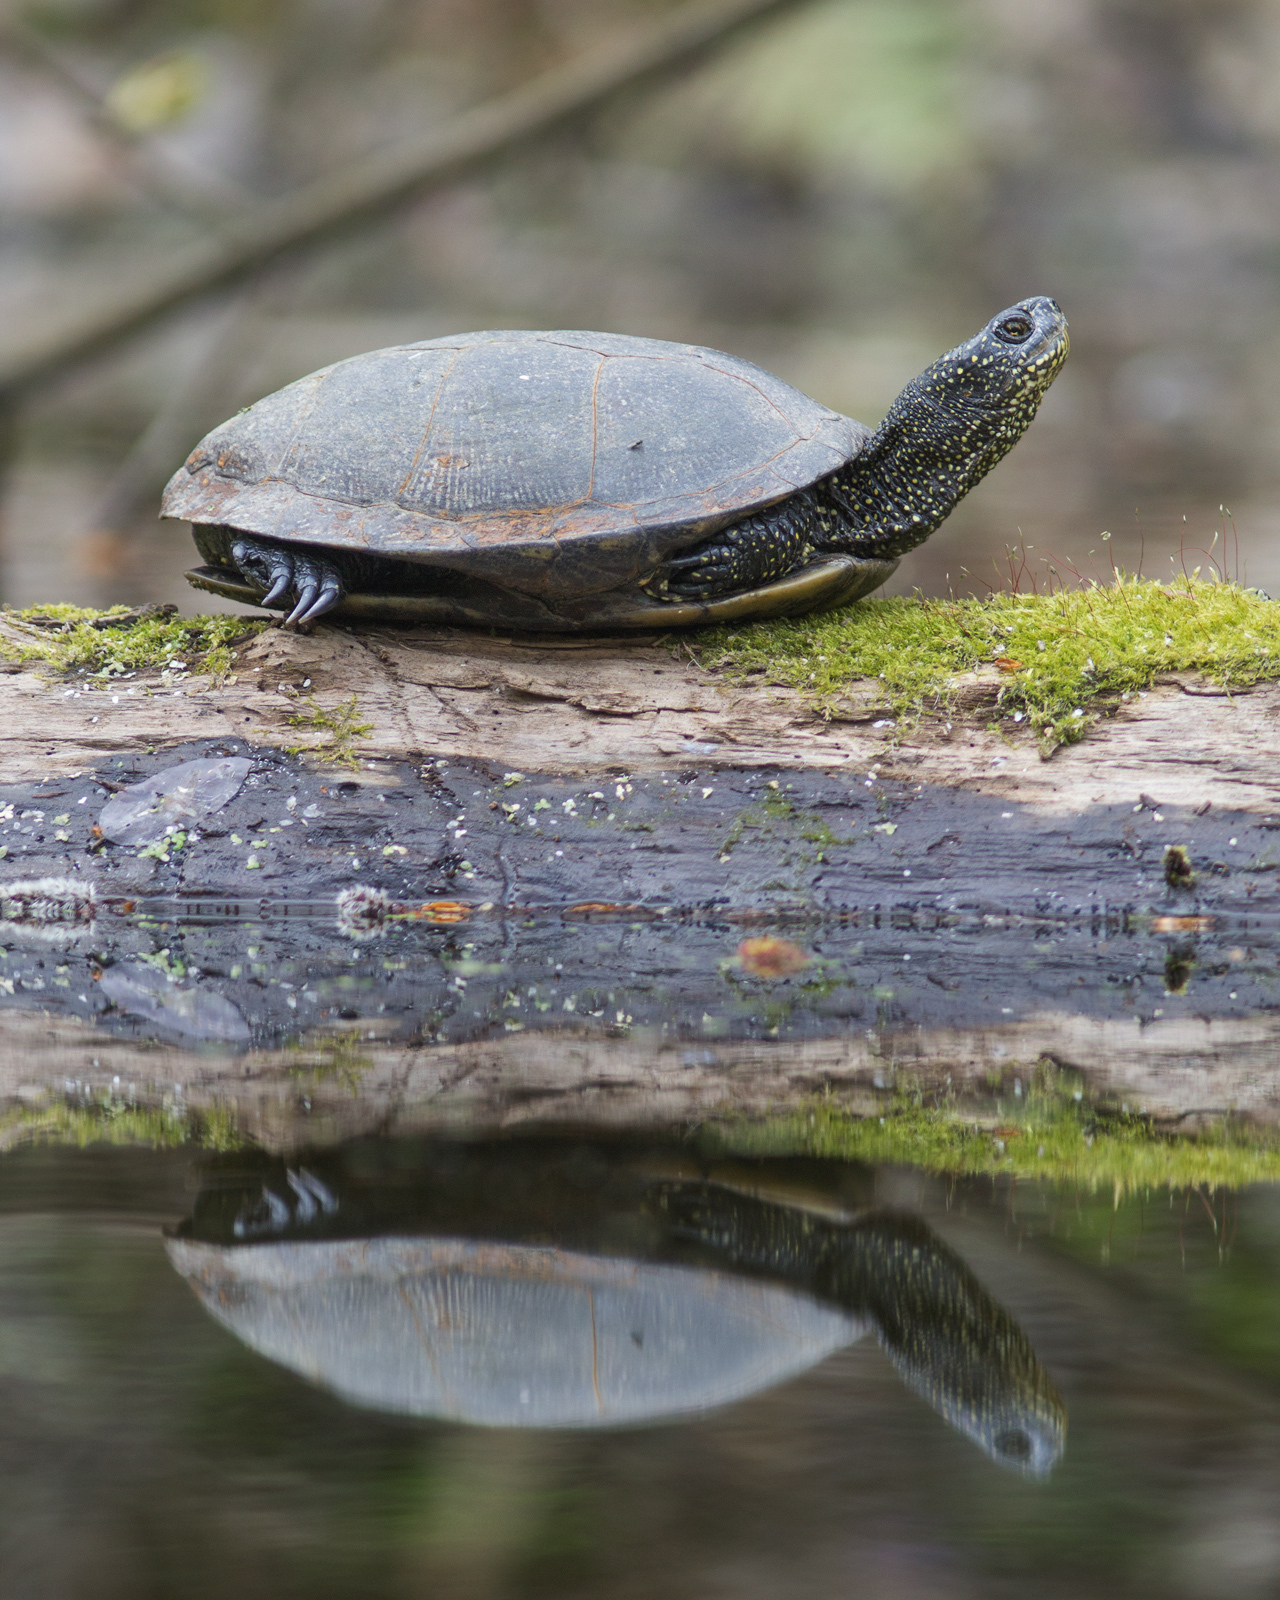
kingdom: Animalia
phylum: Chordata
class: Testudines
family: Emydidae
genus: Emys
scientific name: Emys orbicularis
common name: European pond turtle
